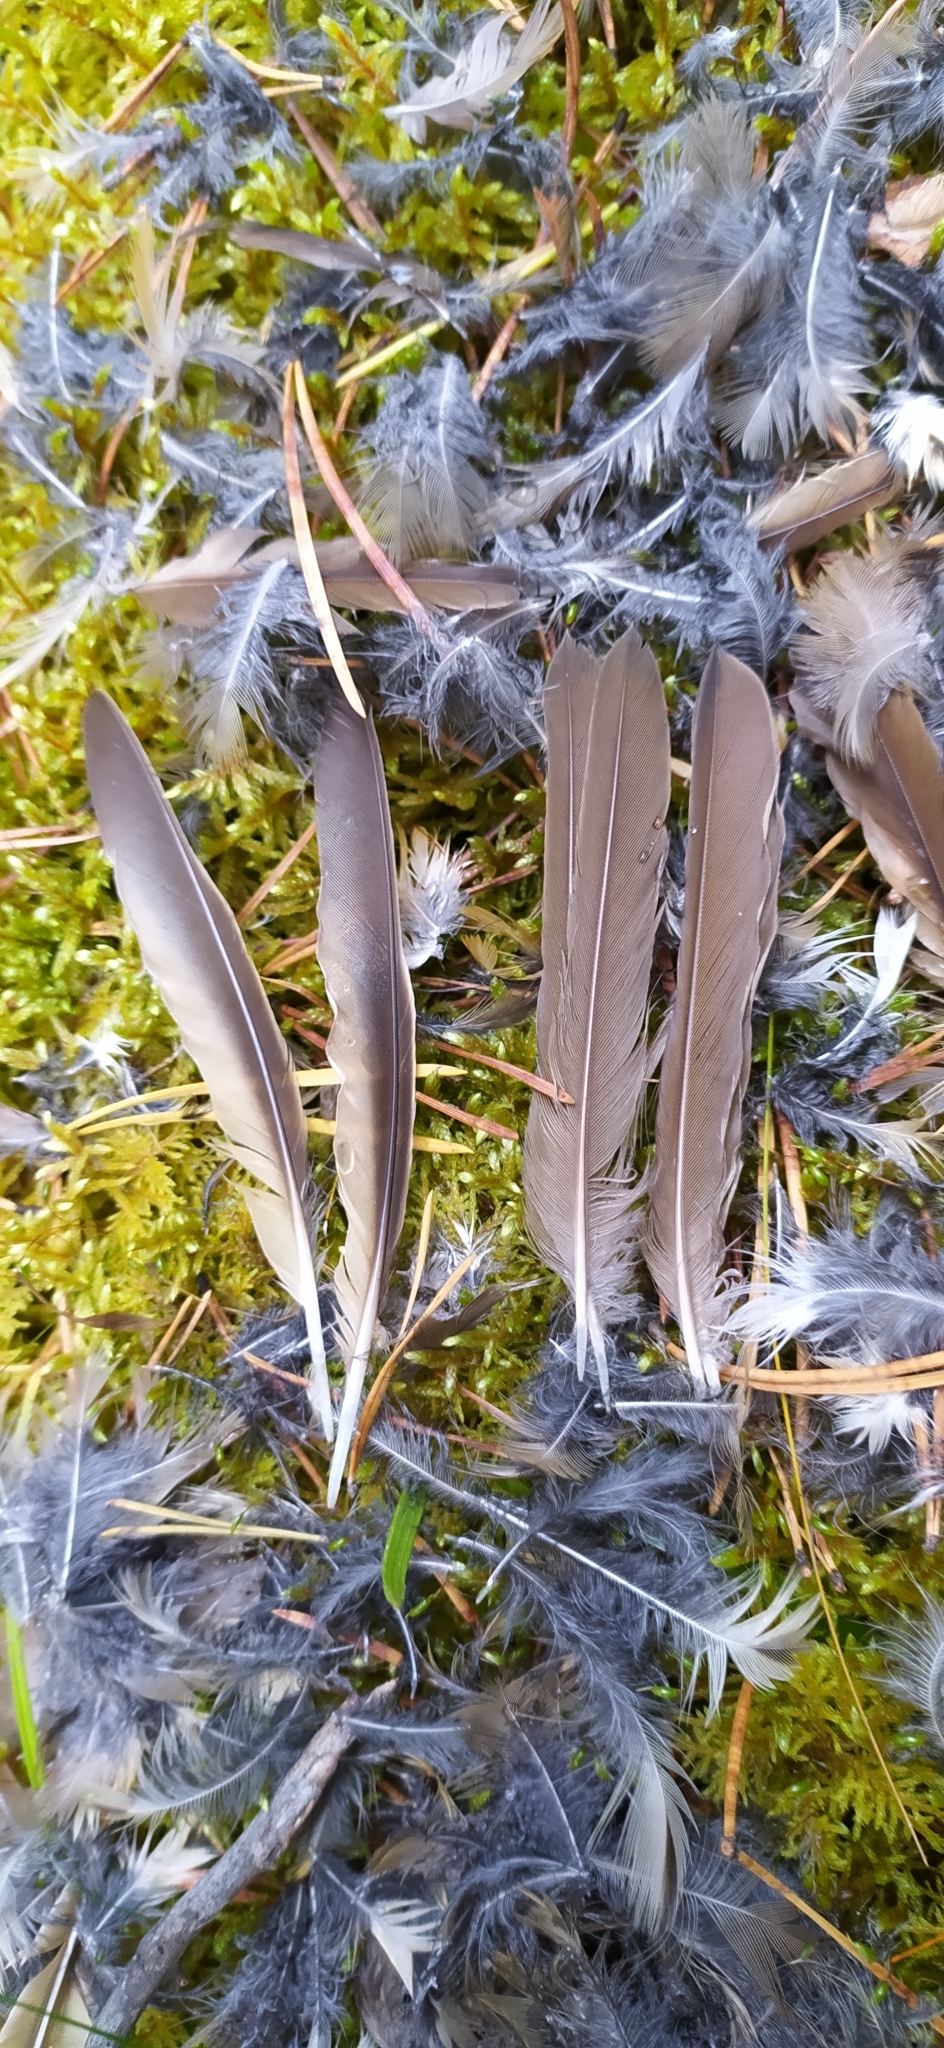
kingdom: Animalia
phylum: Chordata
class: Aves
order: Passeriformes
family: Turdidae
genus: Turdus
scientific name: Turdus philomelos
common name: Song thrush
